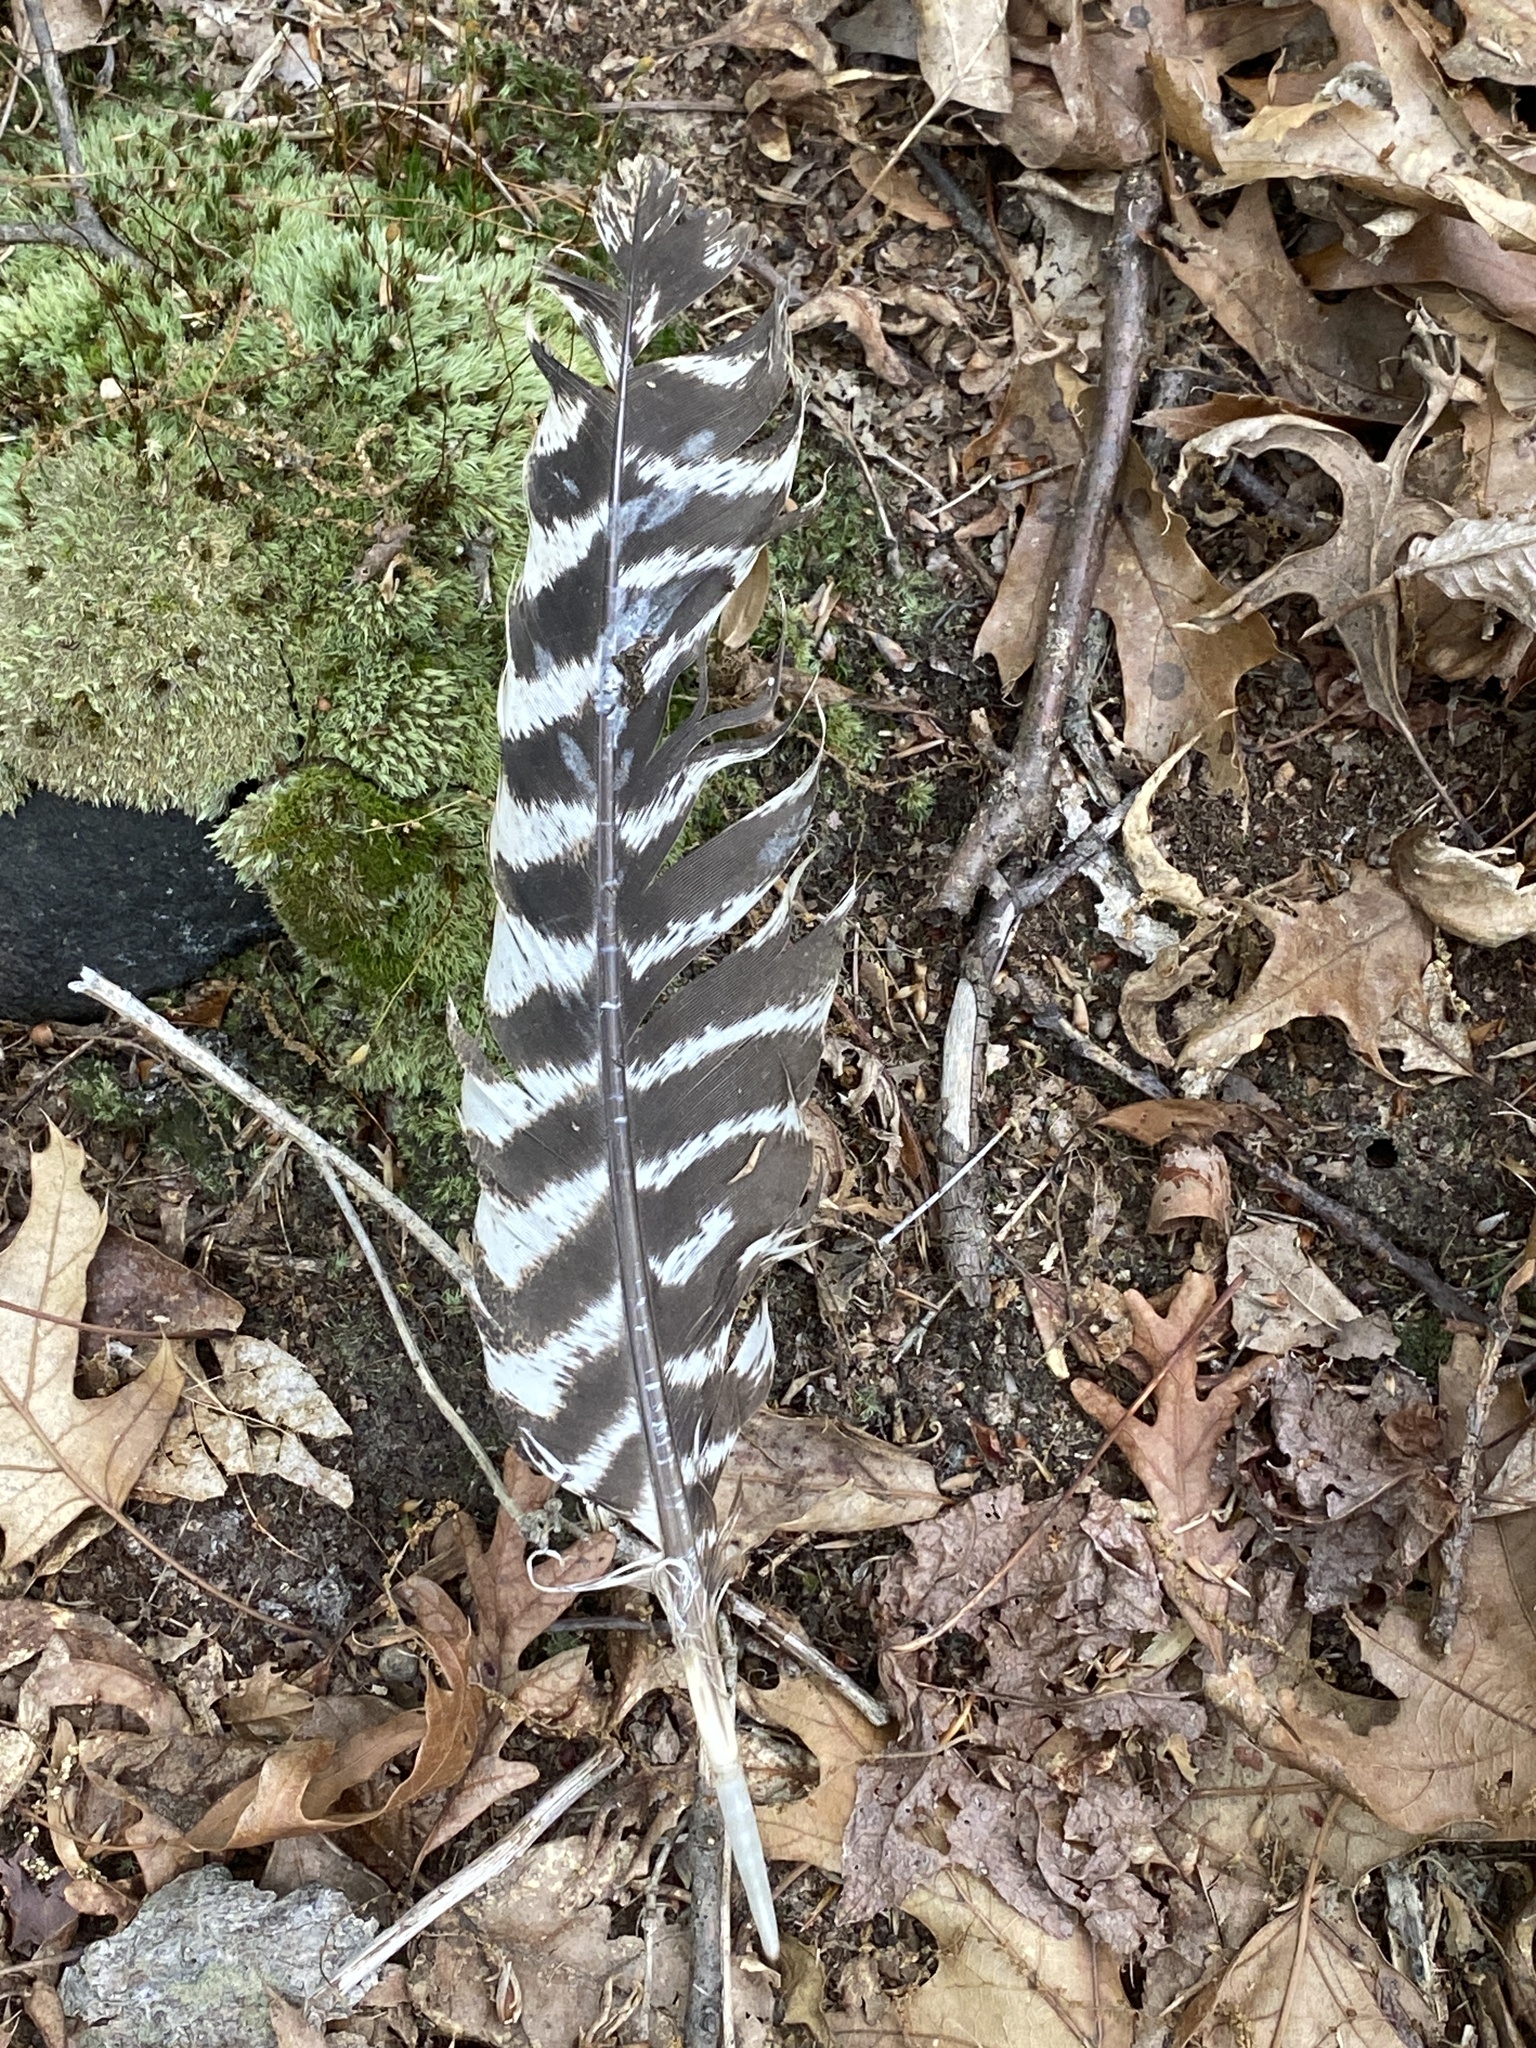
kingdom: Animalia
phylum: Chordata
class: Aves
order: Galliformes
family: Phasianidae
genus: Meleagris
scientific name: Meleagris gallopavo
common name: Wild turkey
